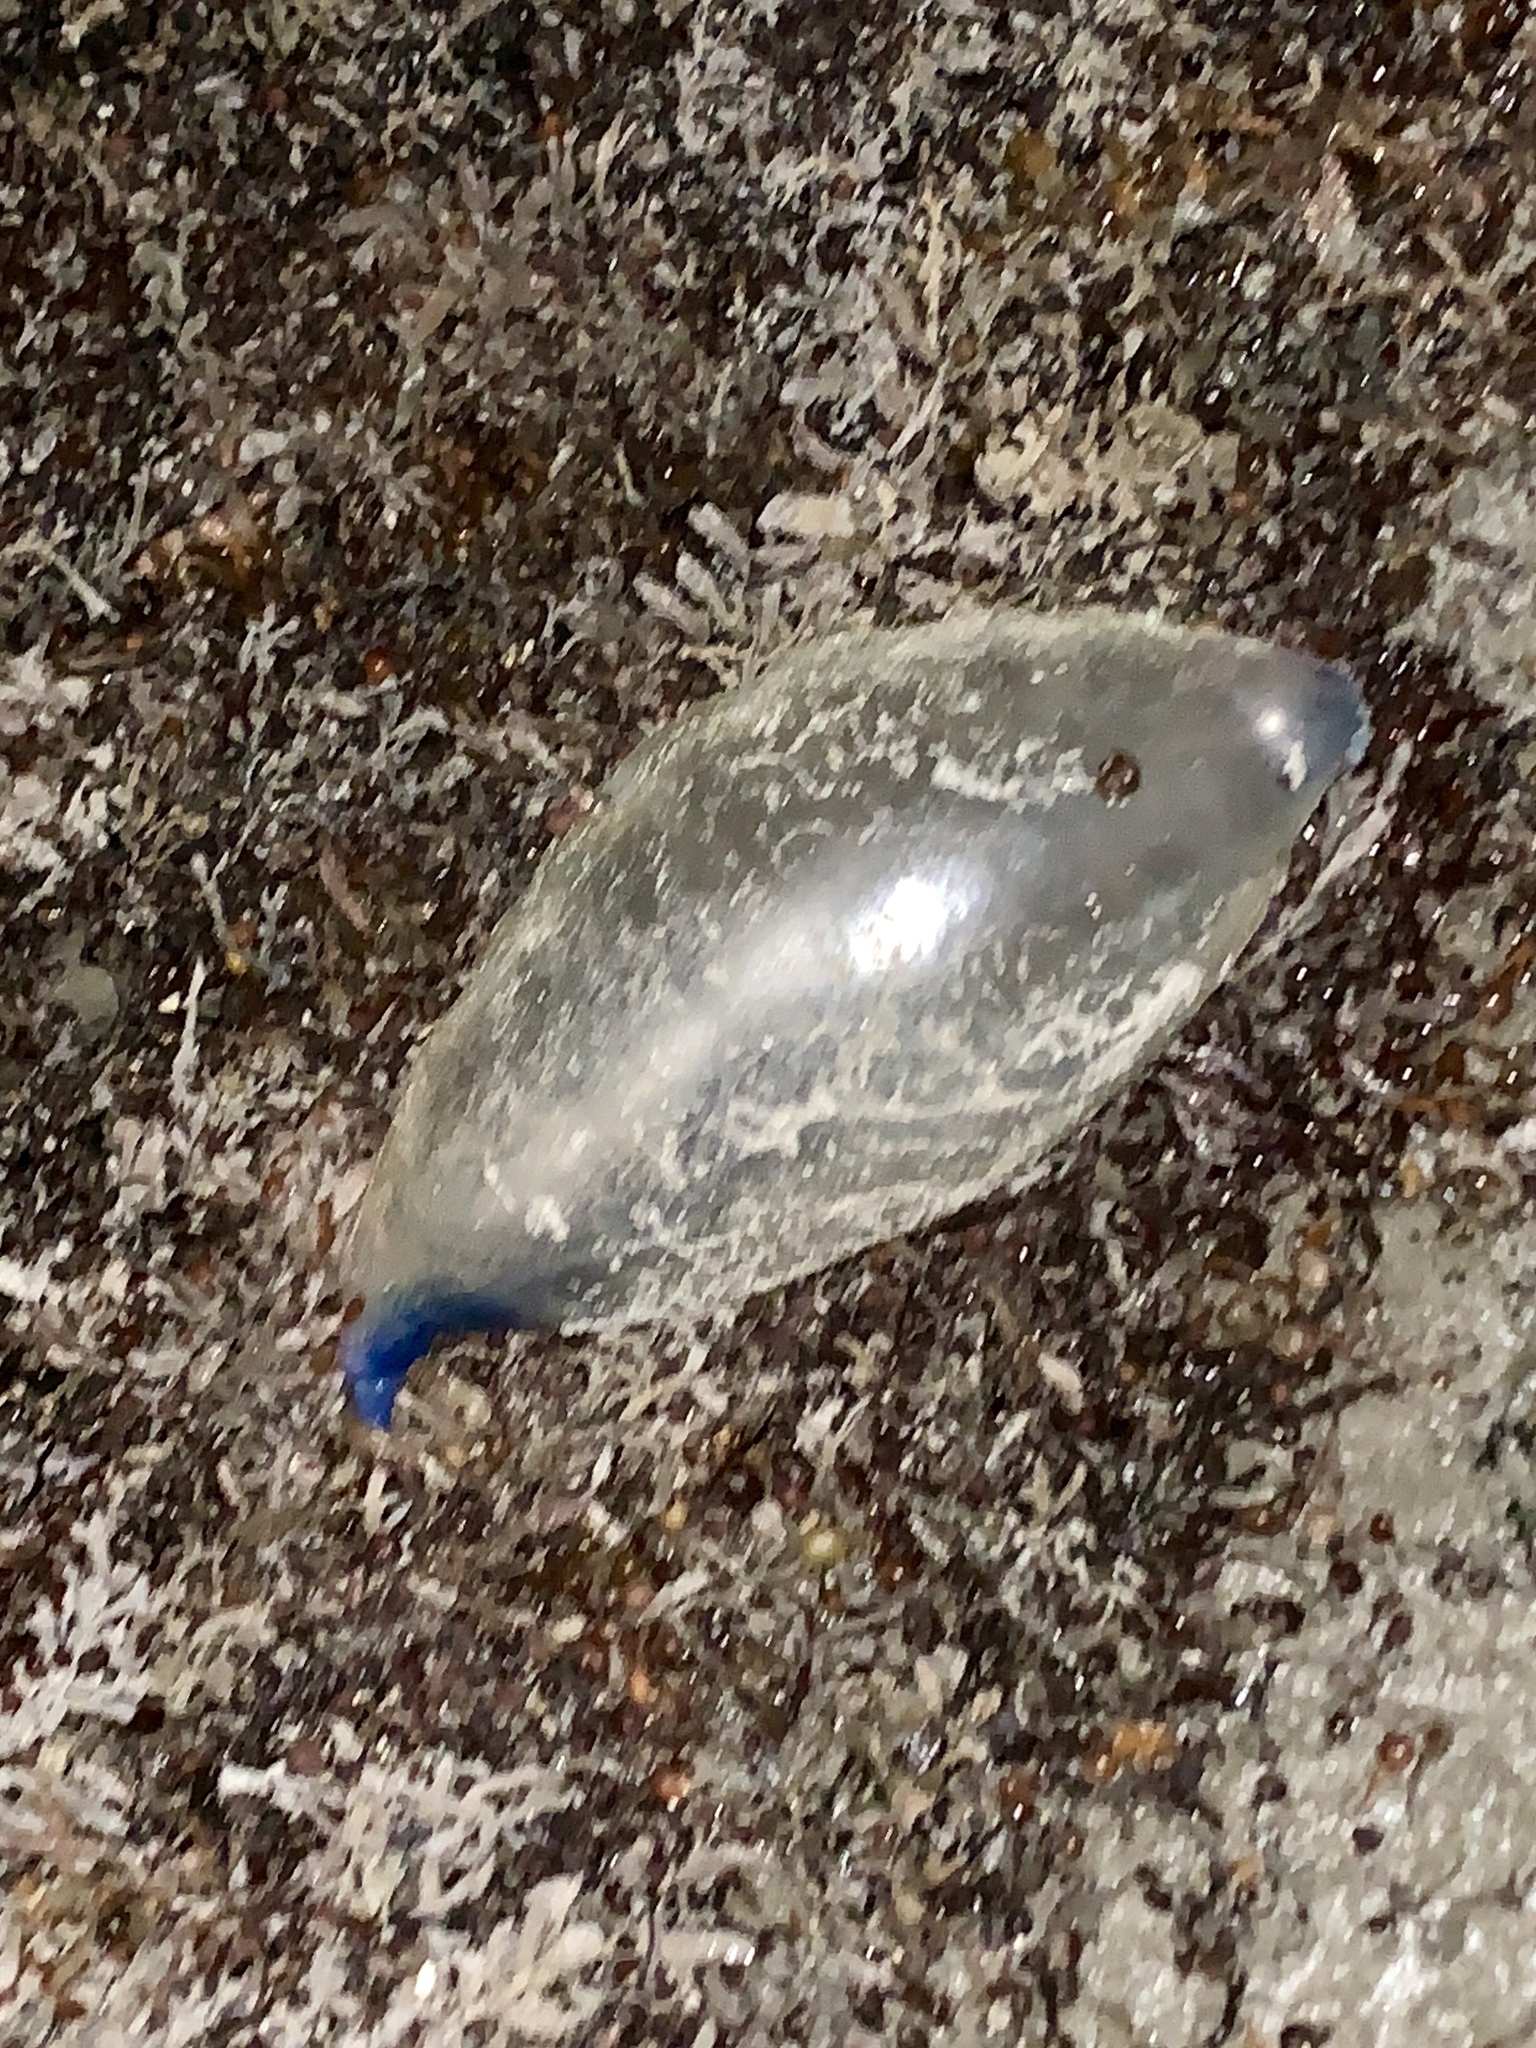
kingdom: Animalia
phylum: Cnidaria
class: Hydrozoa
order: Siphonophorae
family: Physaliidae
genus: Physalia
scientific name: Physalia physalis
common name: Portuguese man-of-war
